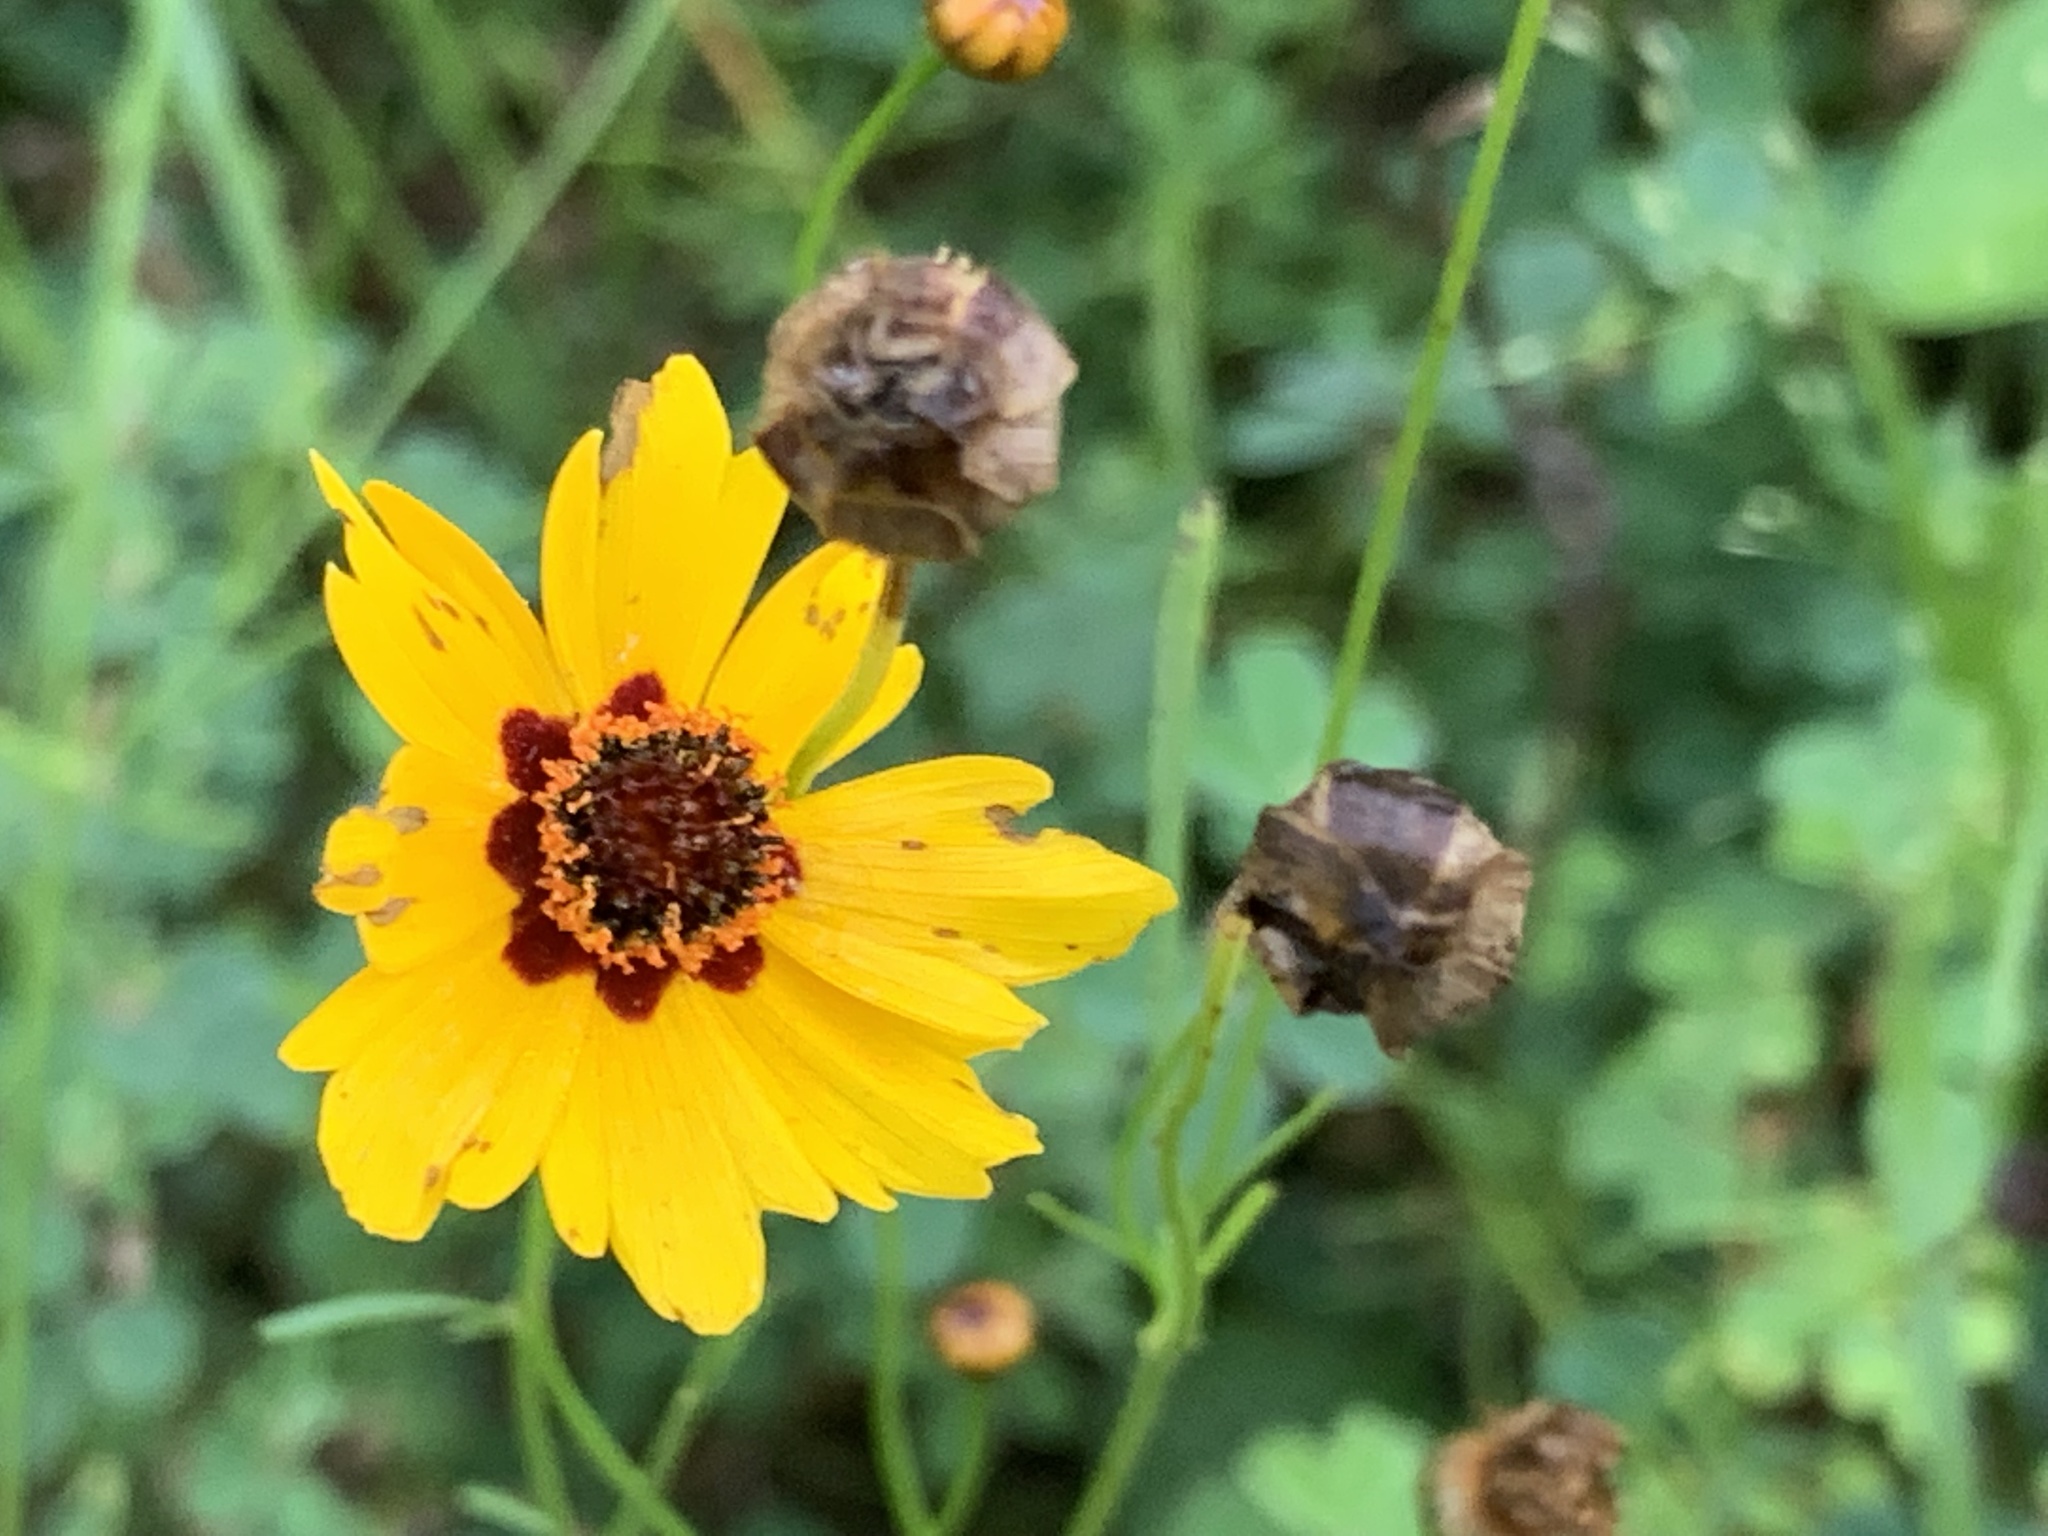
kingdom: Plantae
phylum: Tracheophyta
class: Magnoliopsida
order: Asterales
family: Asteraceae
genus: Coreopsis
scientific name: Coreopsis tinctoria
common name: Garden tickseed
